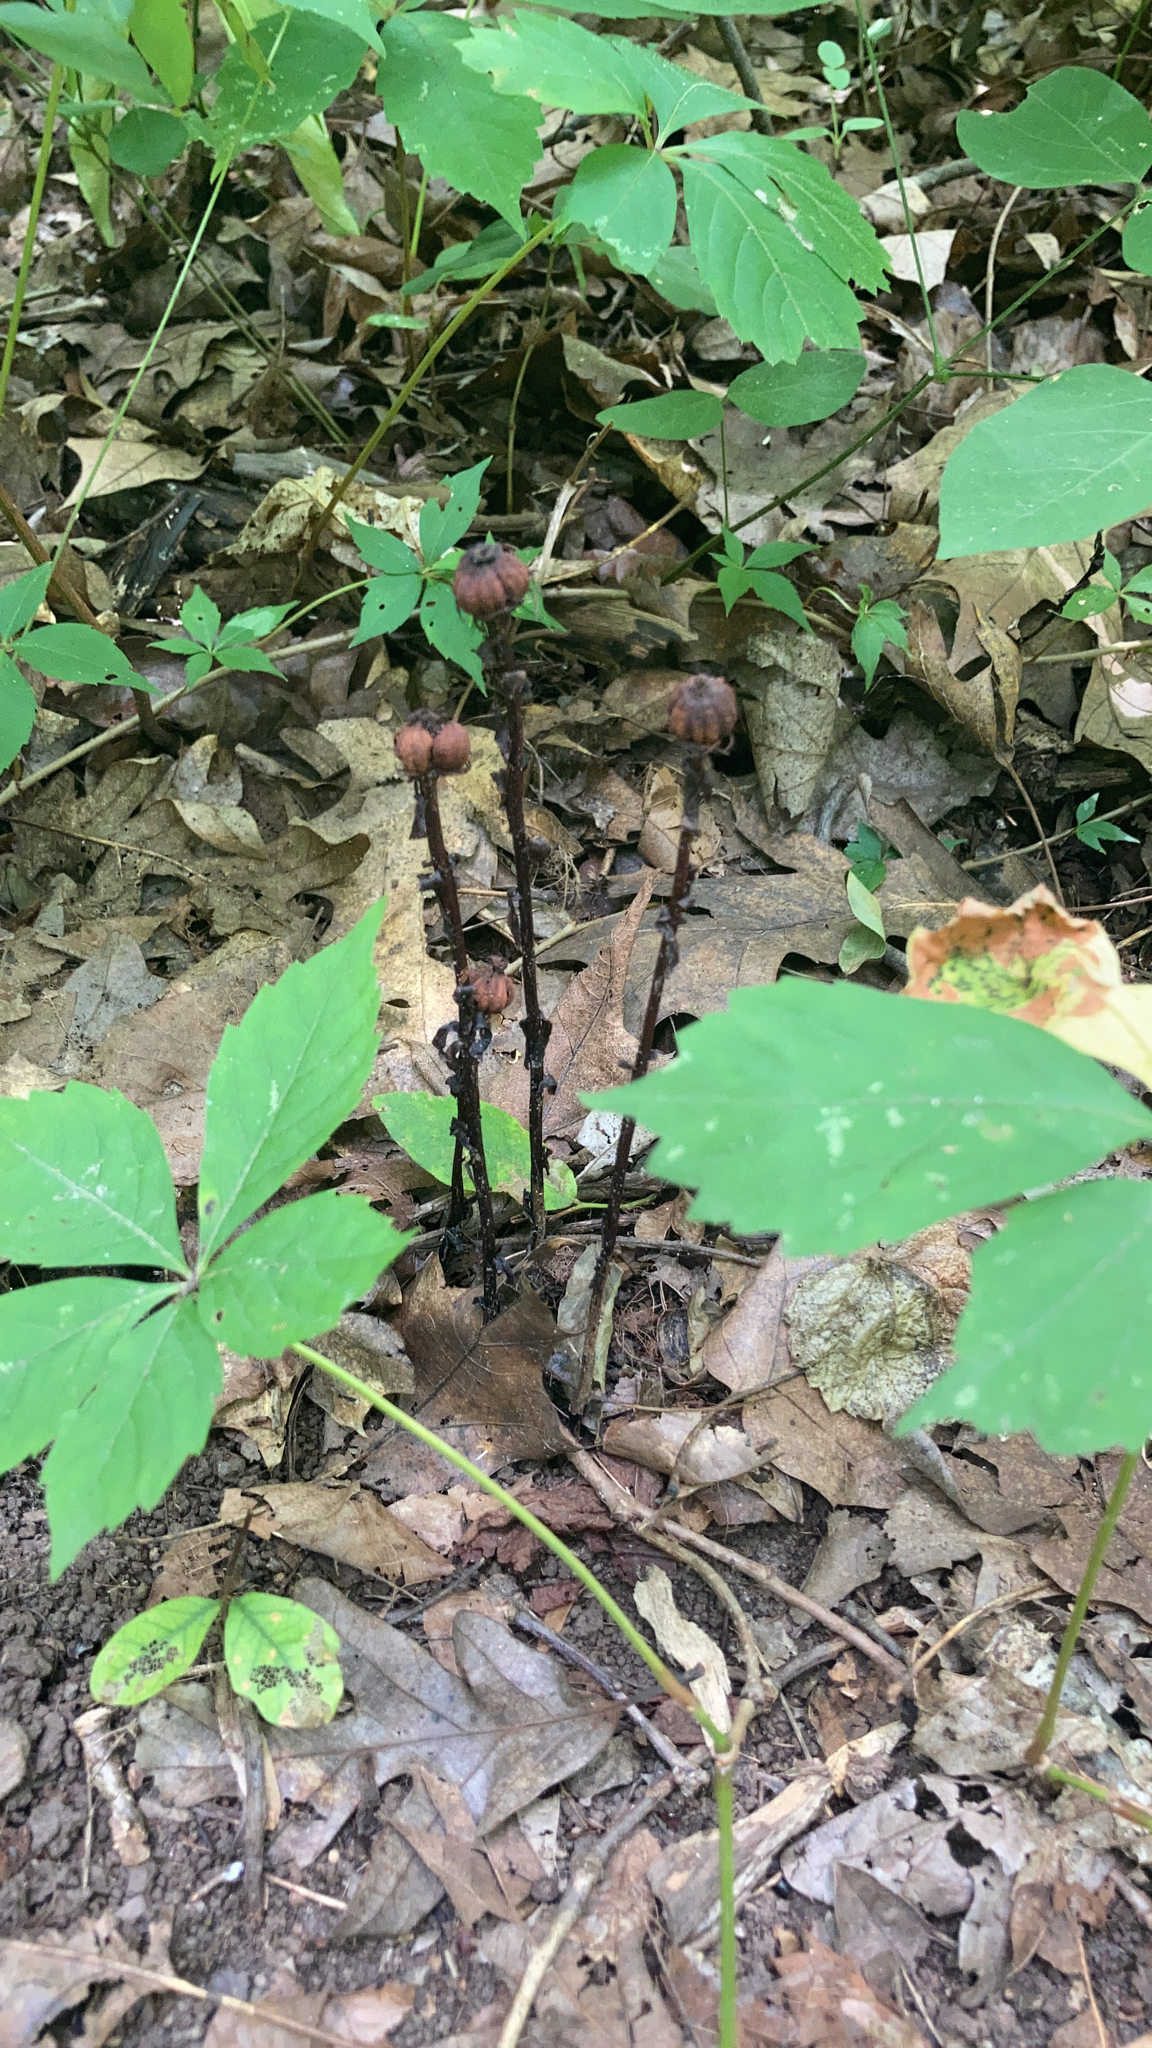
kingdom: Plantae
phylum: Tracheophyta
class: Magnoliopsida
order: Ericales
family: Ericaceae
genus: Monotropa
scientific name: Monotropa uniflora
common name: Convulsion root
